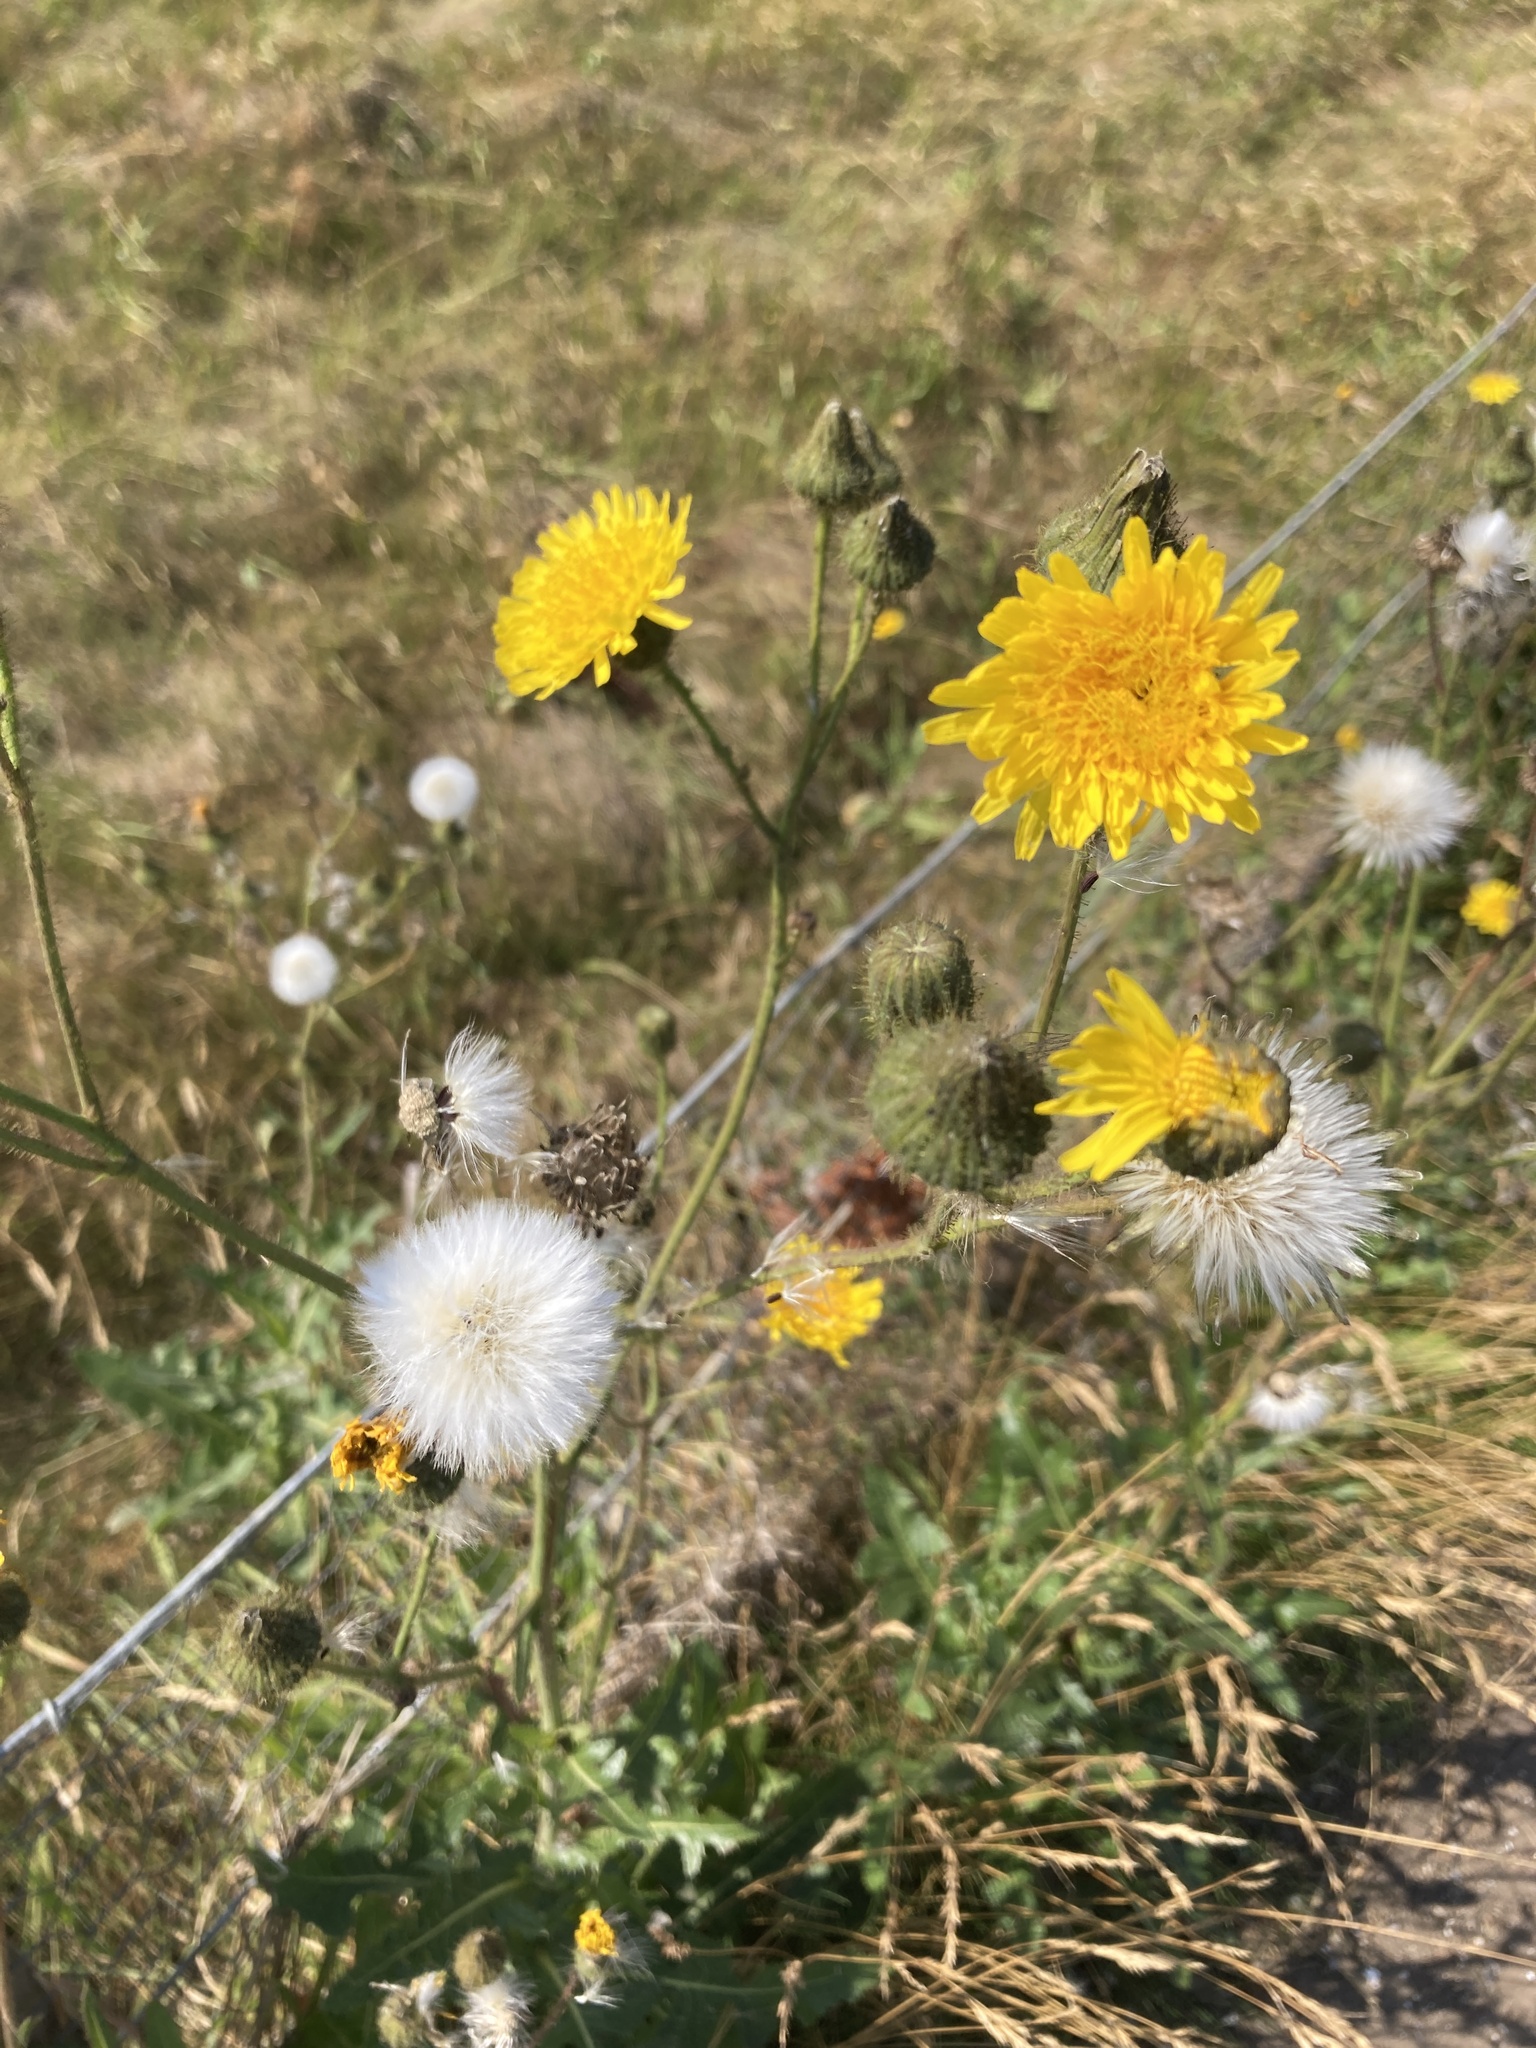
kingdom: Plantae
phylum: Tracheophyta
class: Magnoliopsida
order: Asterales
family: Asteraceae
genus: Sonchus
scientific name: Sonchus asper
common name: Prickly sow-thistle
